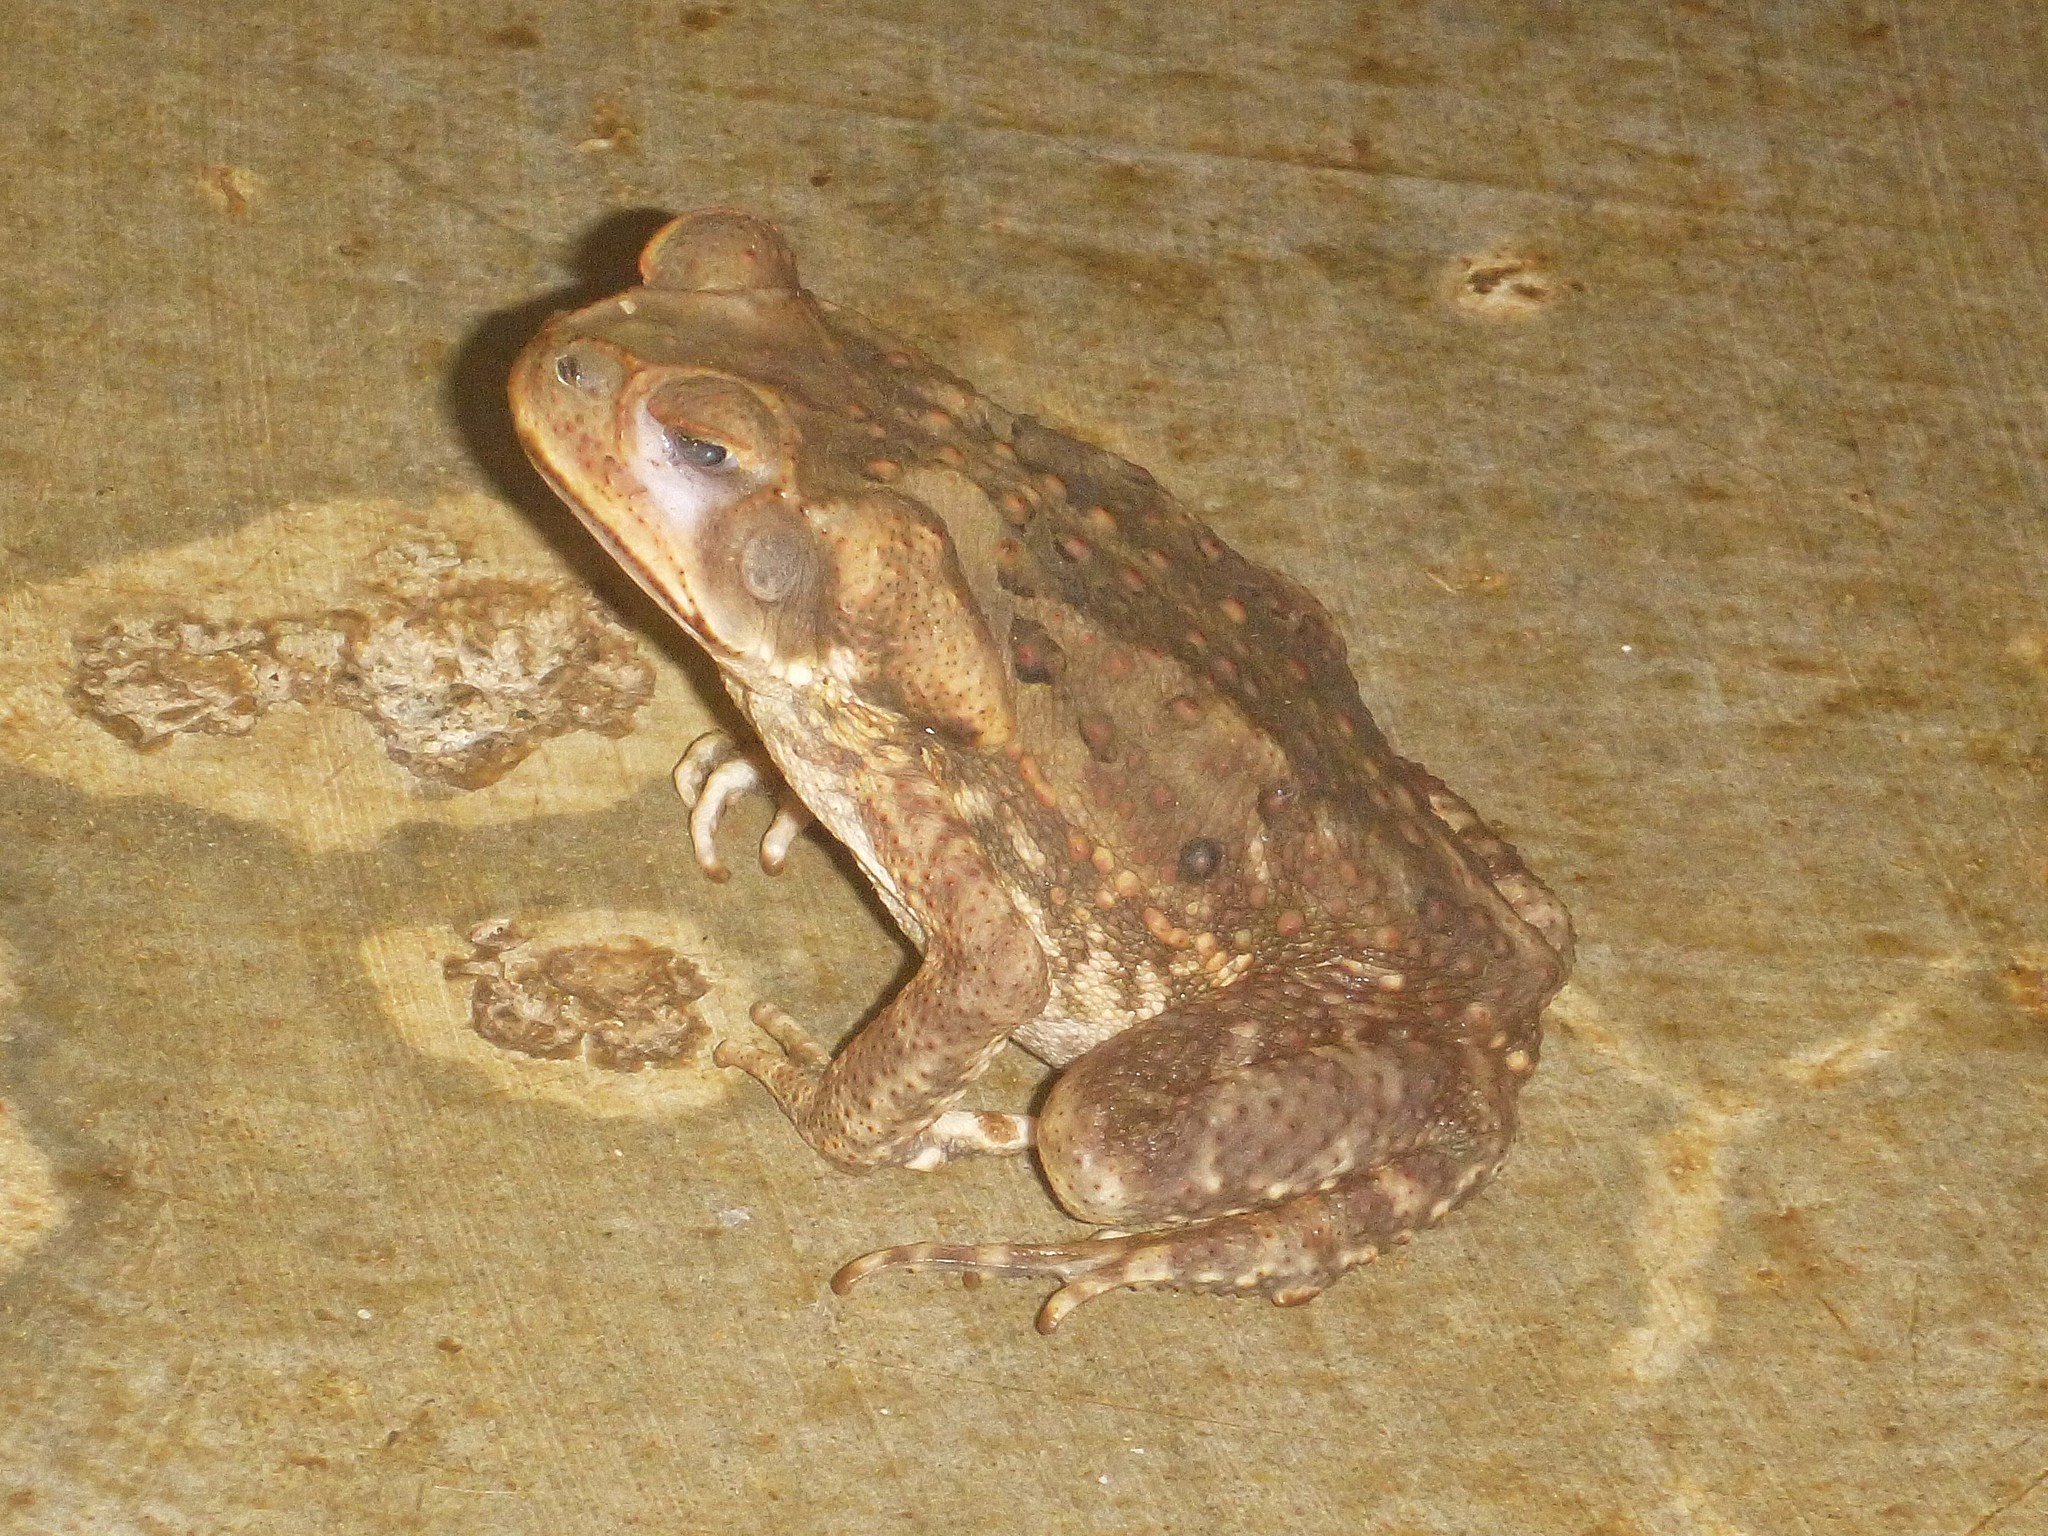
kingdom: Animalia
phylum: Chordata
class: Amphibia
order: Anura
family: Bufonidae
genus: Rhinella
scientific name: Rhinella horribilis
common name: Mesoamerican cane toad
